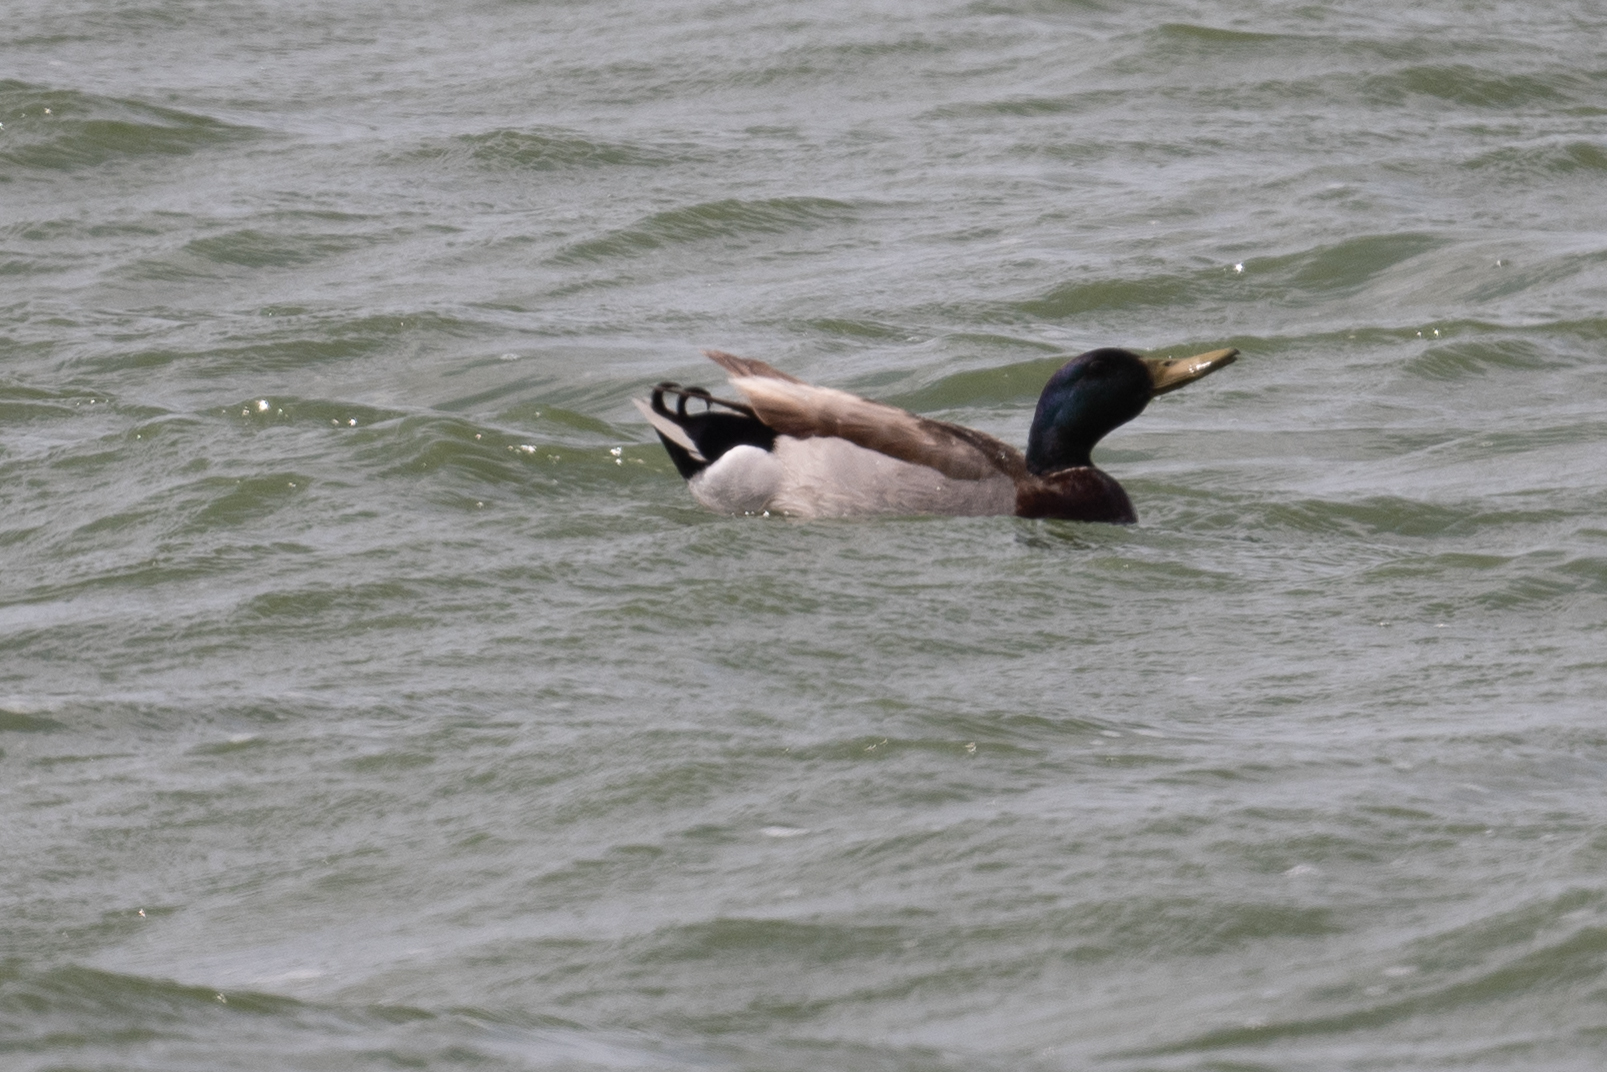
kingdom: Animalia
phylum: Chordata
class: Aves
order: Anseriformes
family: Anatidae
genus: Anas
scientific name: Anas platyrhynchos
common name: Mallard
